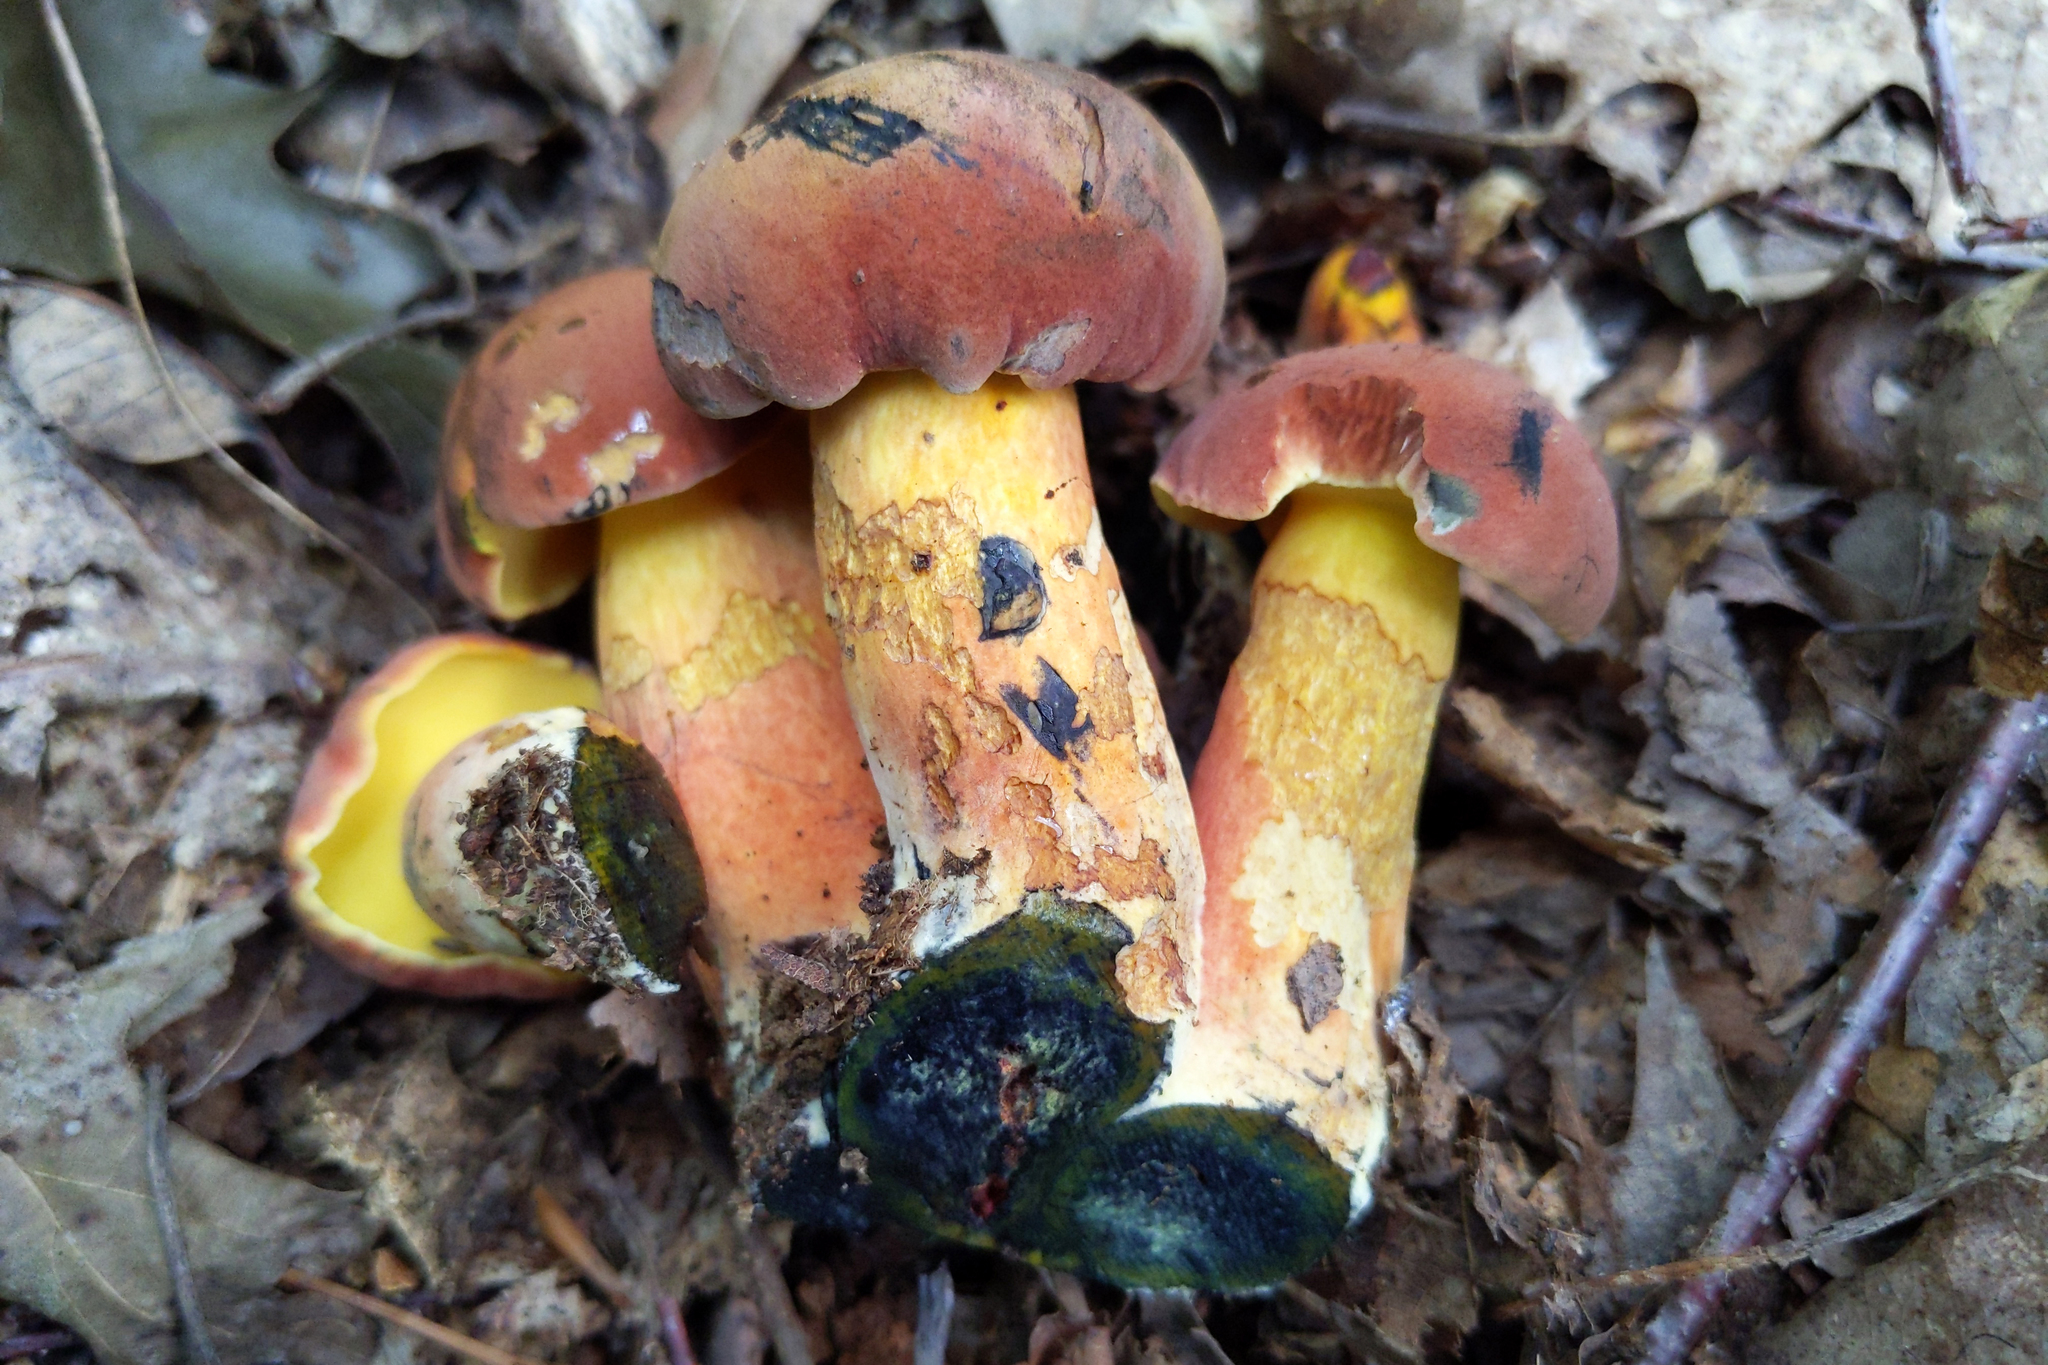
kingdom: Fungi
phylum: Basidiomycota
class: Agaricomycetes
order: Boletales
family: Boletaceae
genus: Boletus
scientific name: Boletus sensibilis
